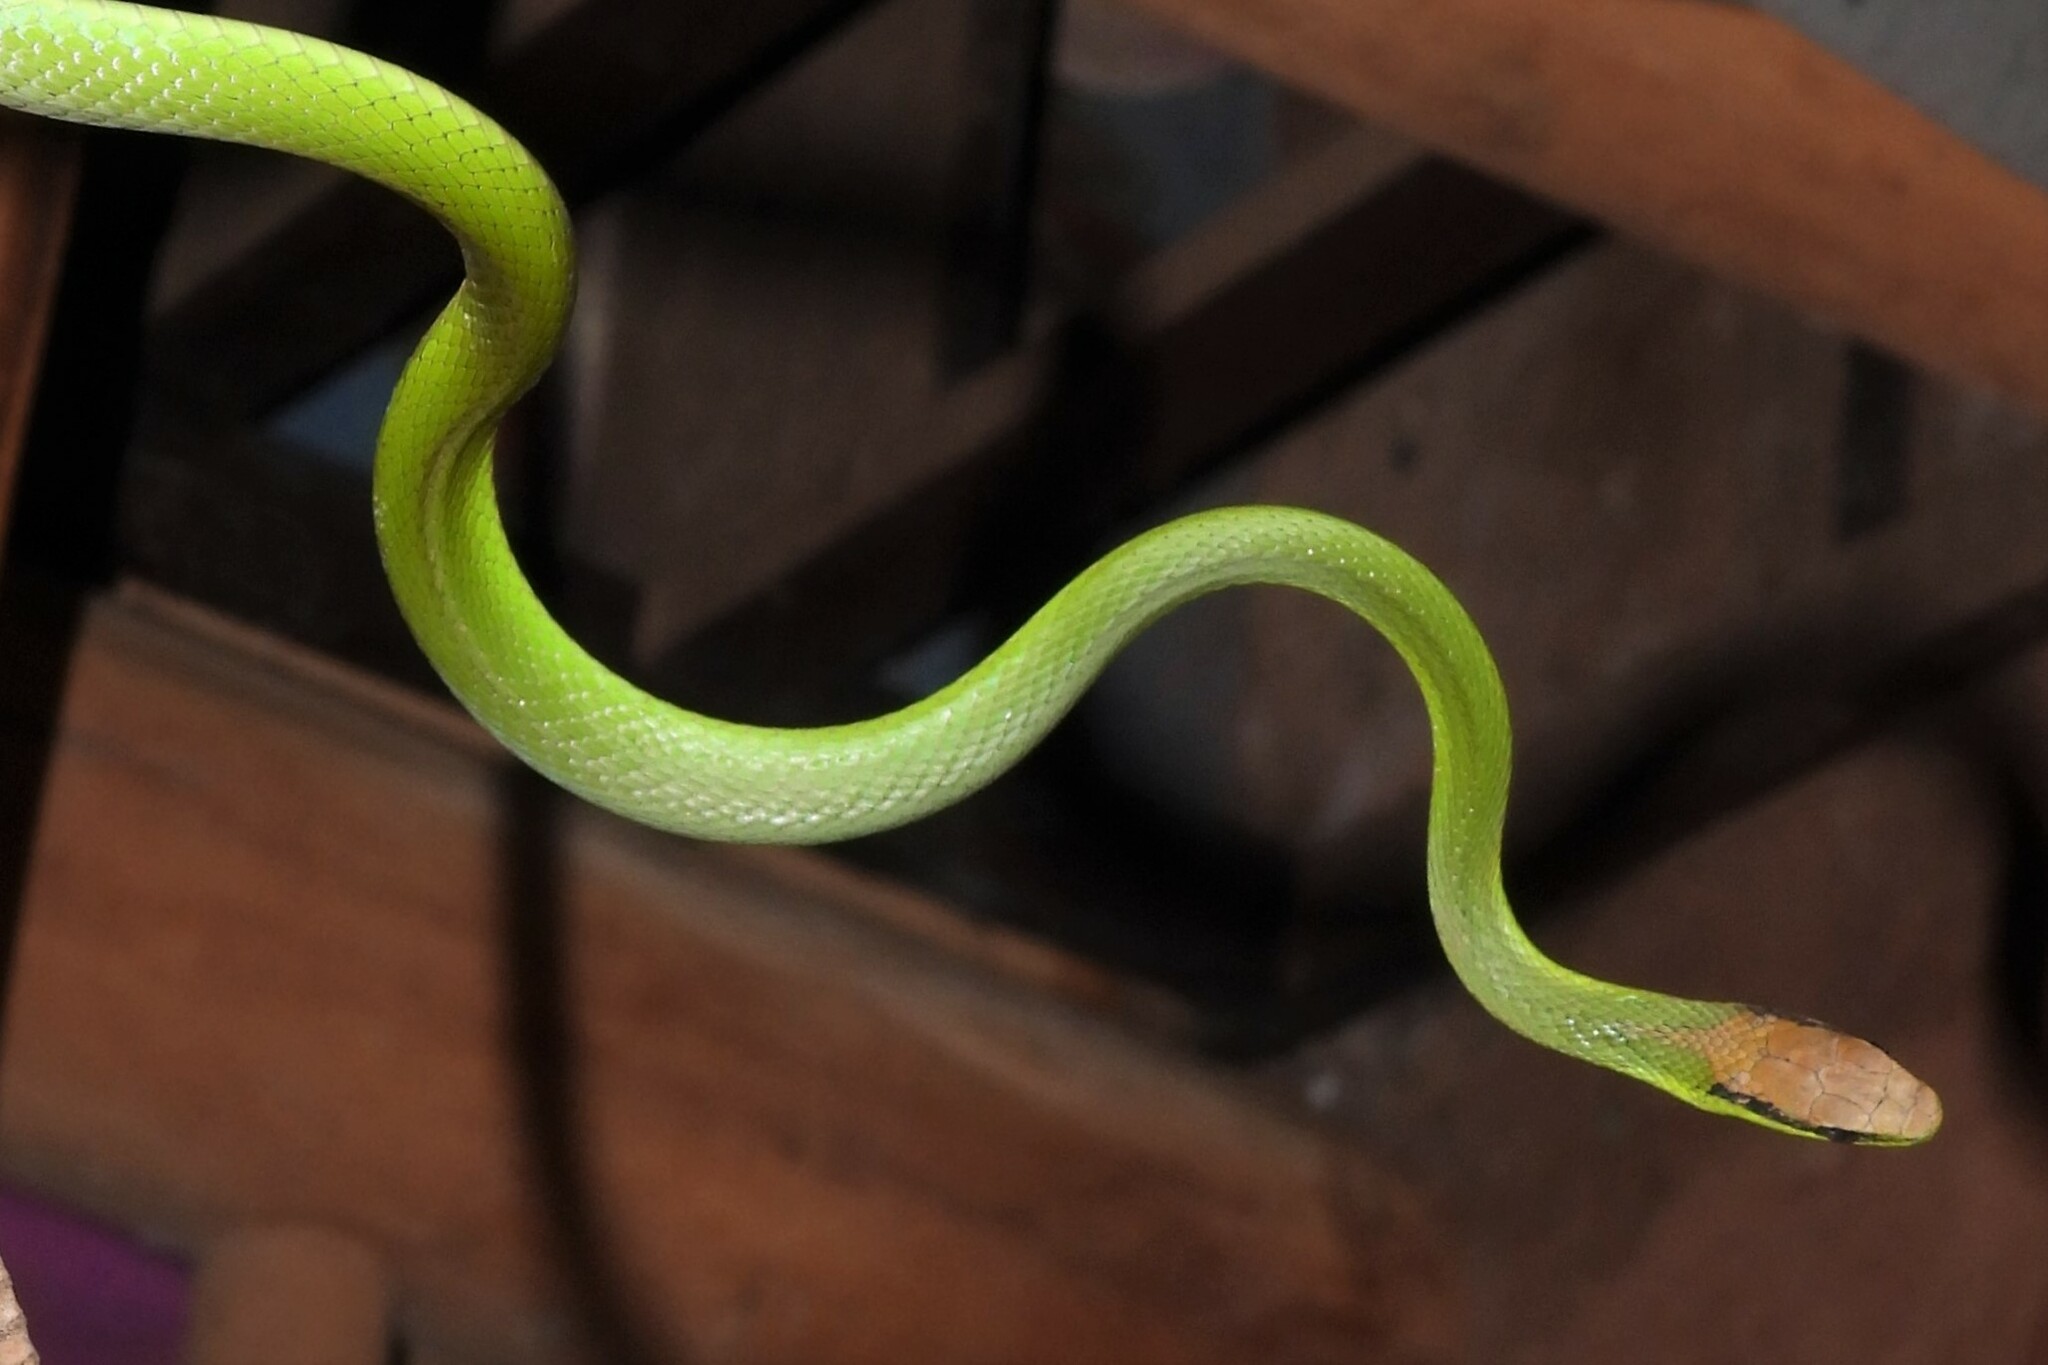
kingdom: Animalia
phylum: Chordata
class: Squamata
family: Colubridae
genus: Philodryas
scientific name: Philodryas olfersii
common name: Lichtenstein's green racer
